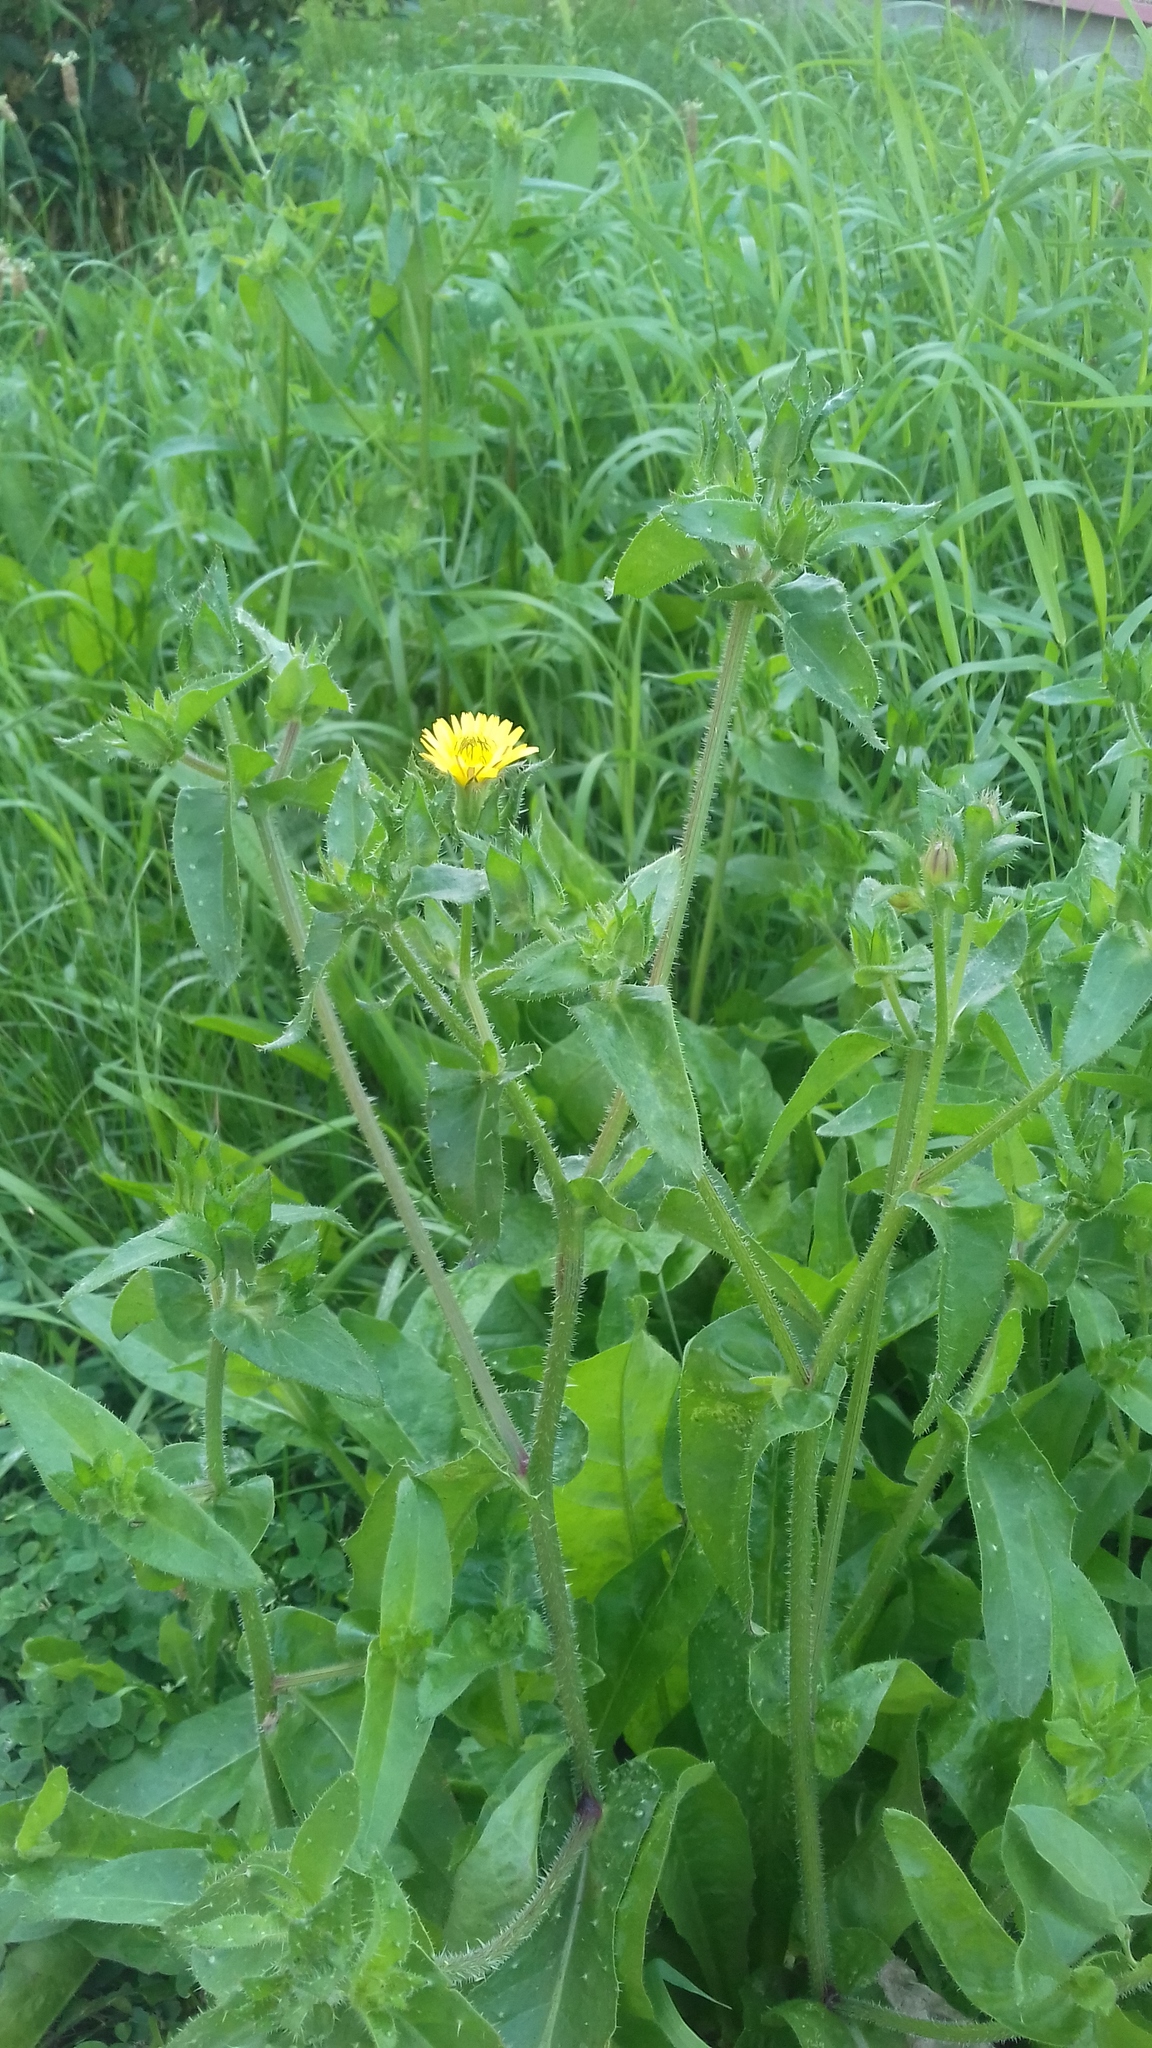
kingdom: Plantae
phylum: Tracheophyta
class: Magnoliopsida
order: Asterales
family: Asteraceae
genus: Helminthotheca
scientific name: Helminthotheca echioides
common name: Ox-tongue
